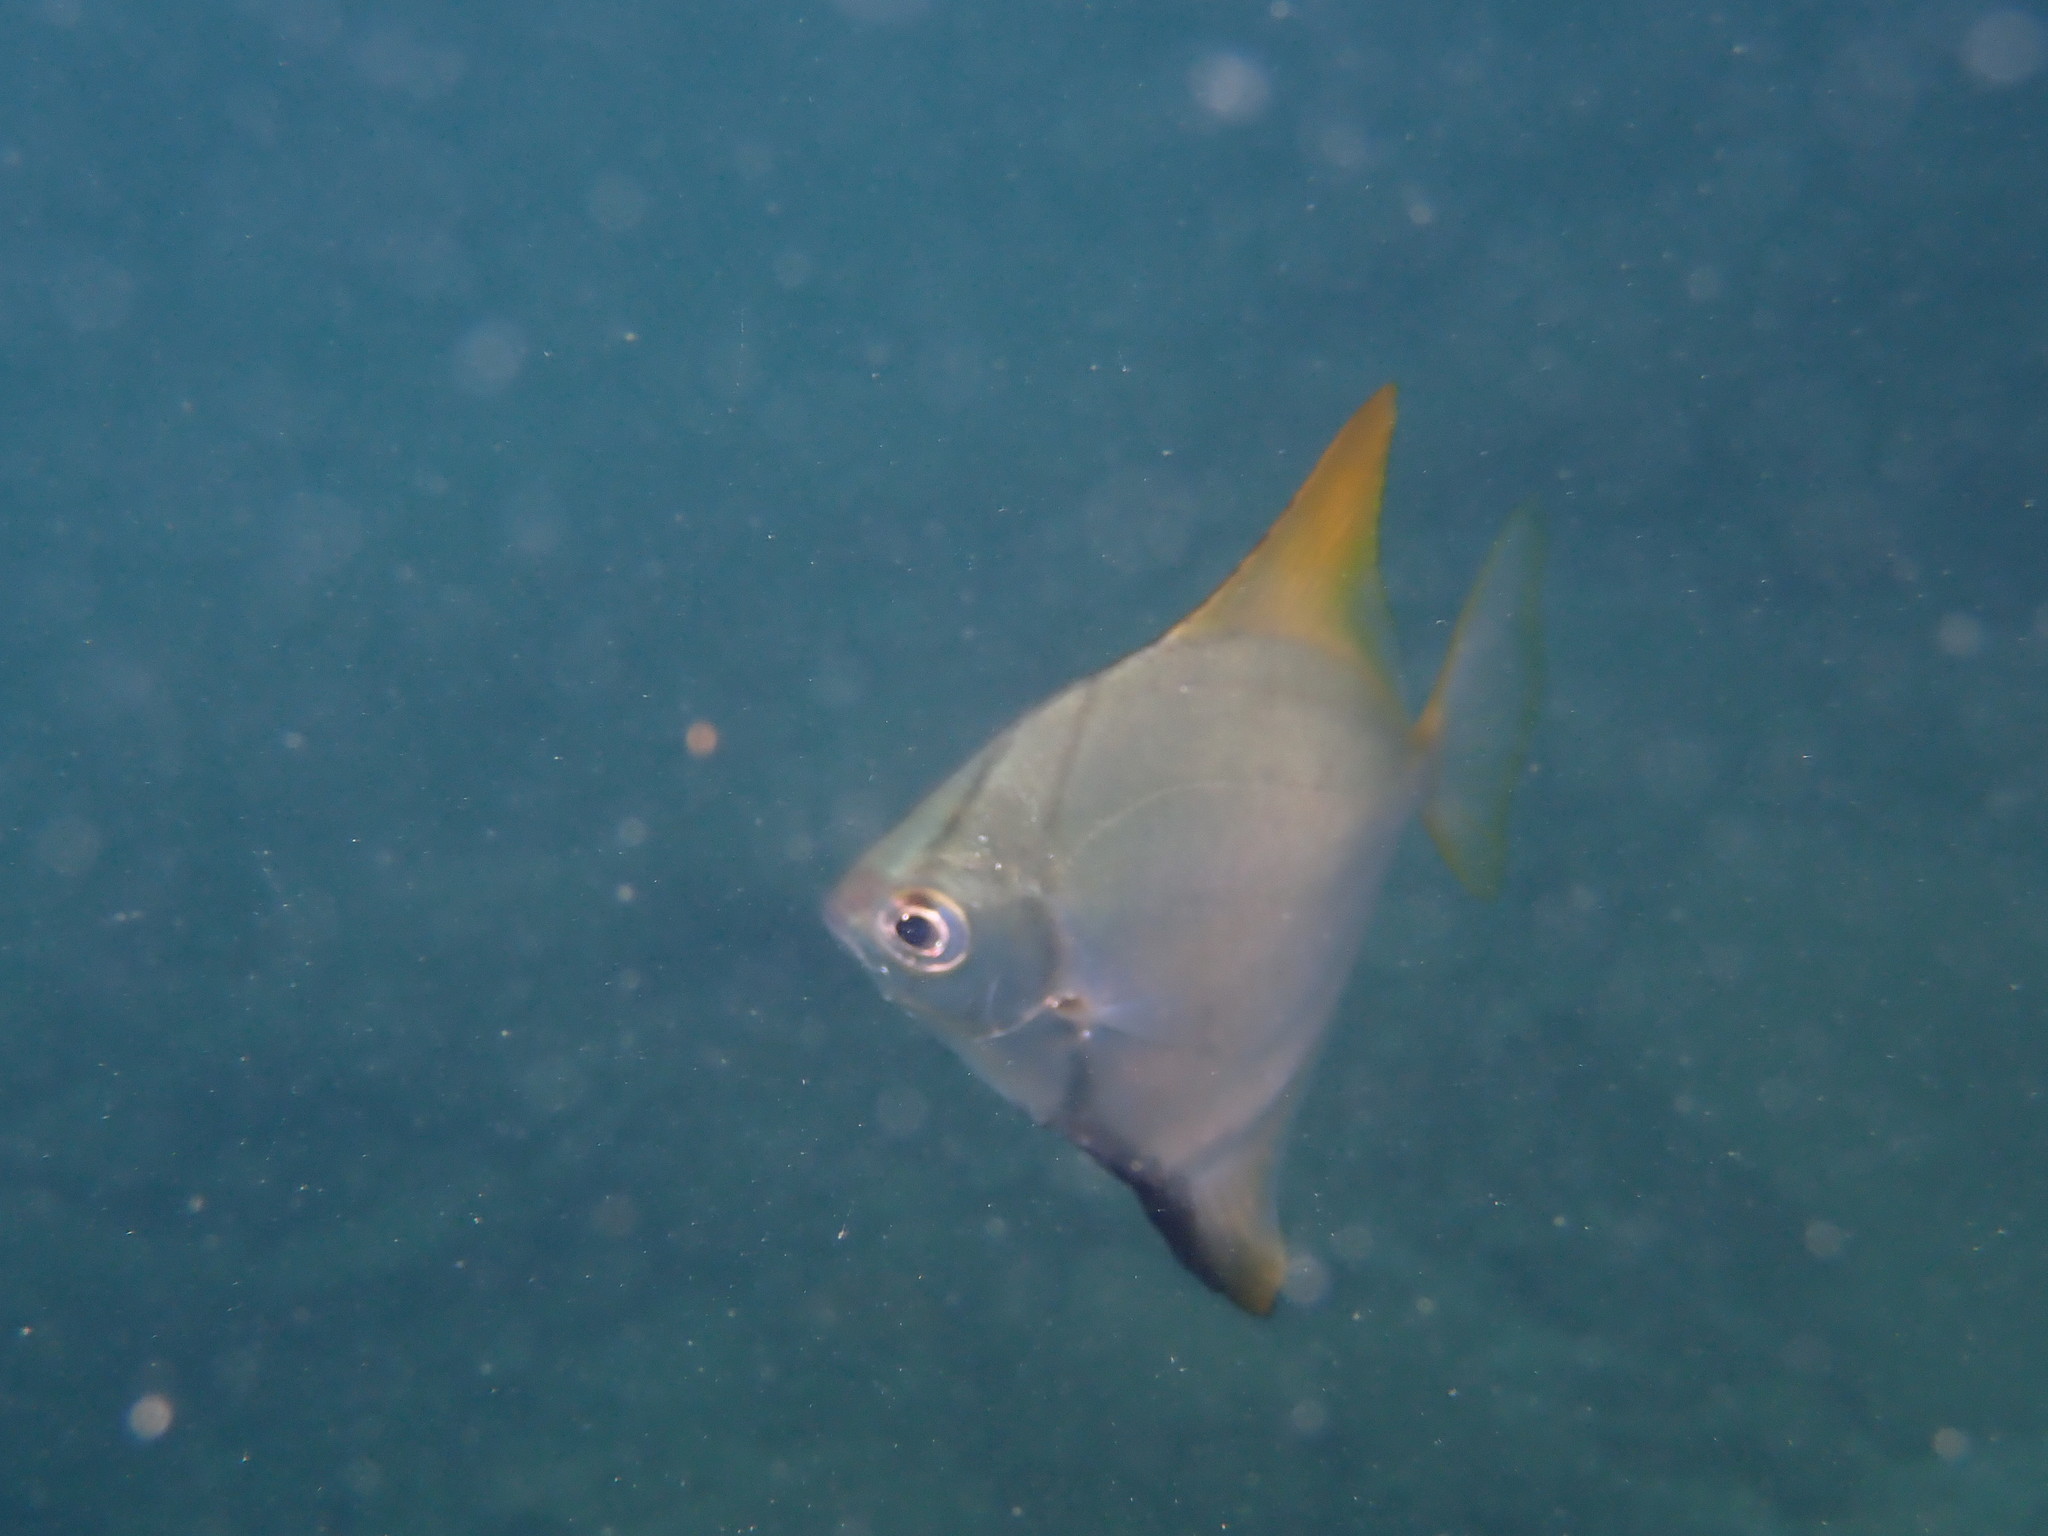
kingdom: Animalia
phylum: Chordata
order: Perciformes
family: Monodactylidae
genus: Monodactylus
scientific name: Monodactylus argenteus
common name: Silver moony
